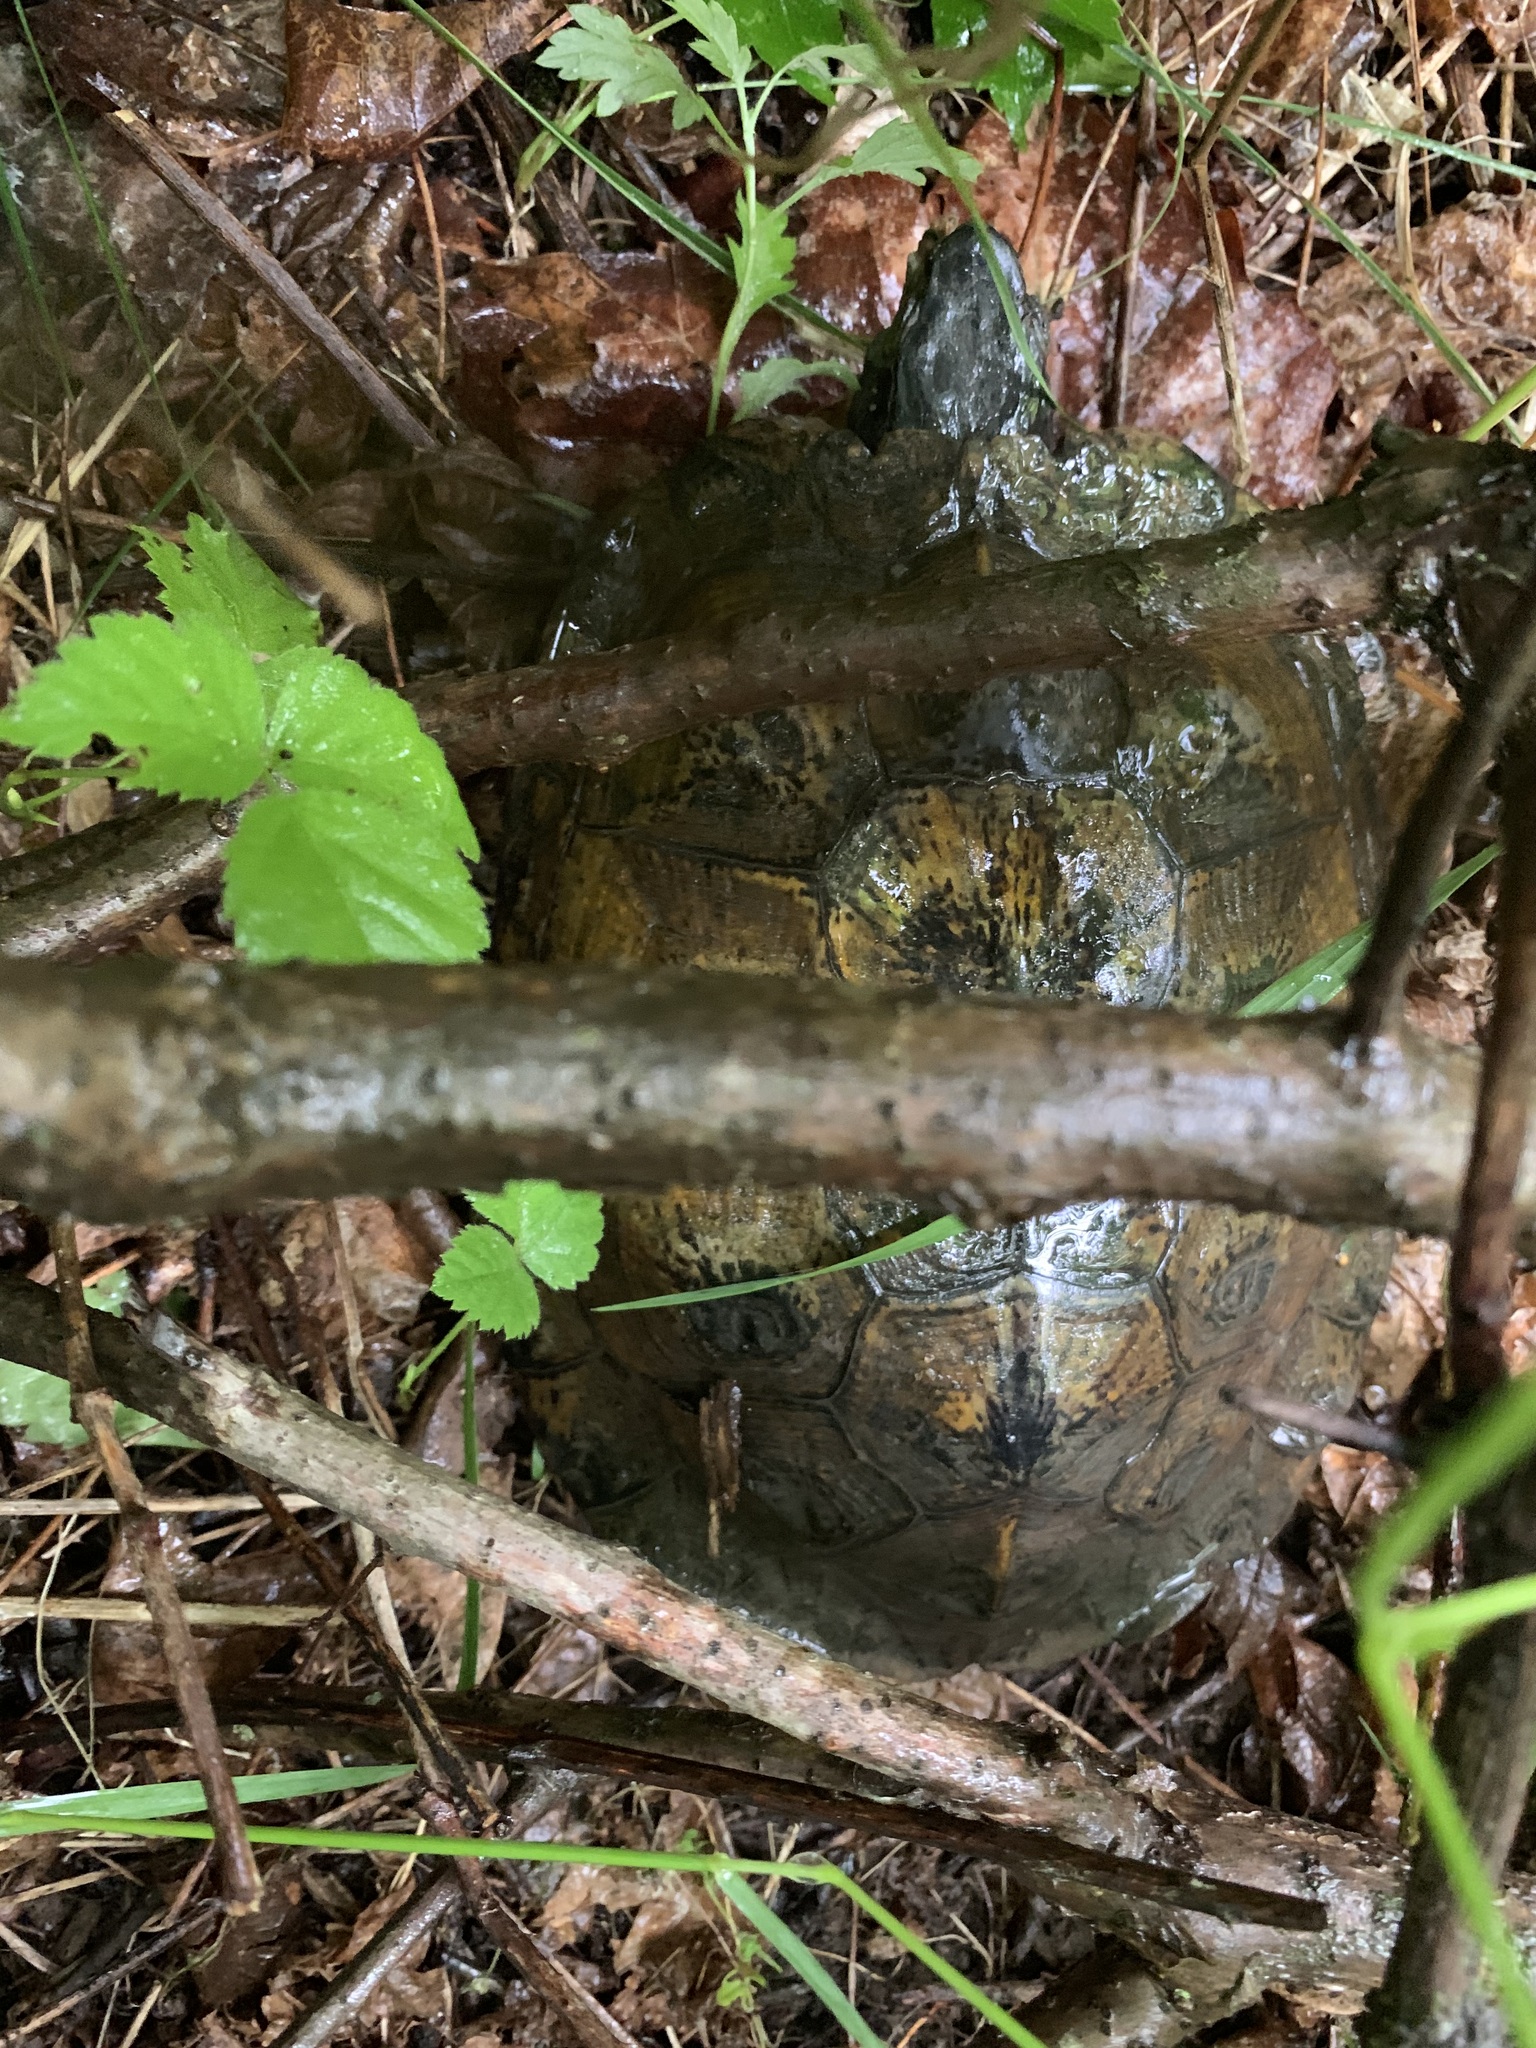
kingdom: Animalia
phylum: Chordata
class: Testudines
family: Emydidae
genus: Glyptemys
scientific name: Glyptemys insculpta
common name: Wood turtle
